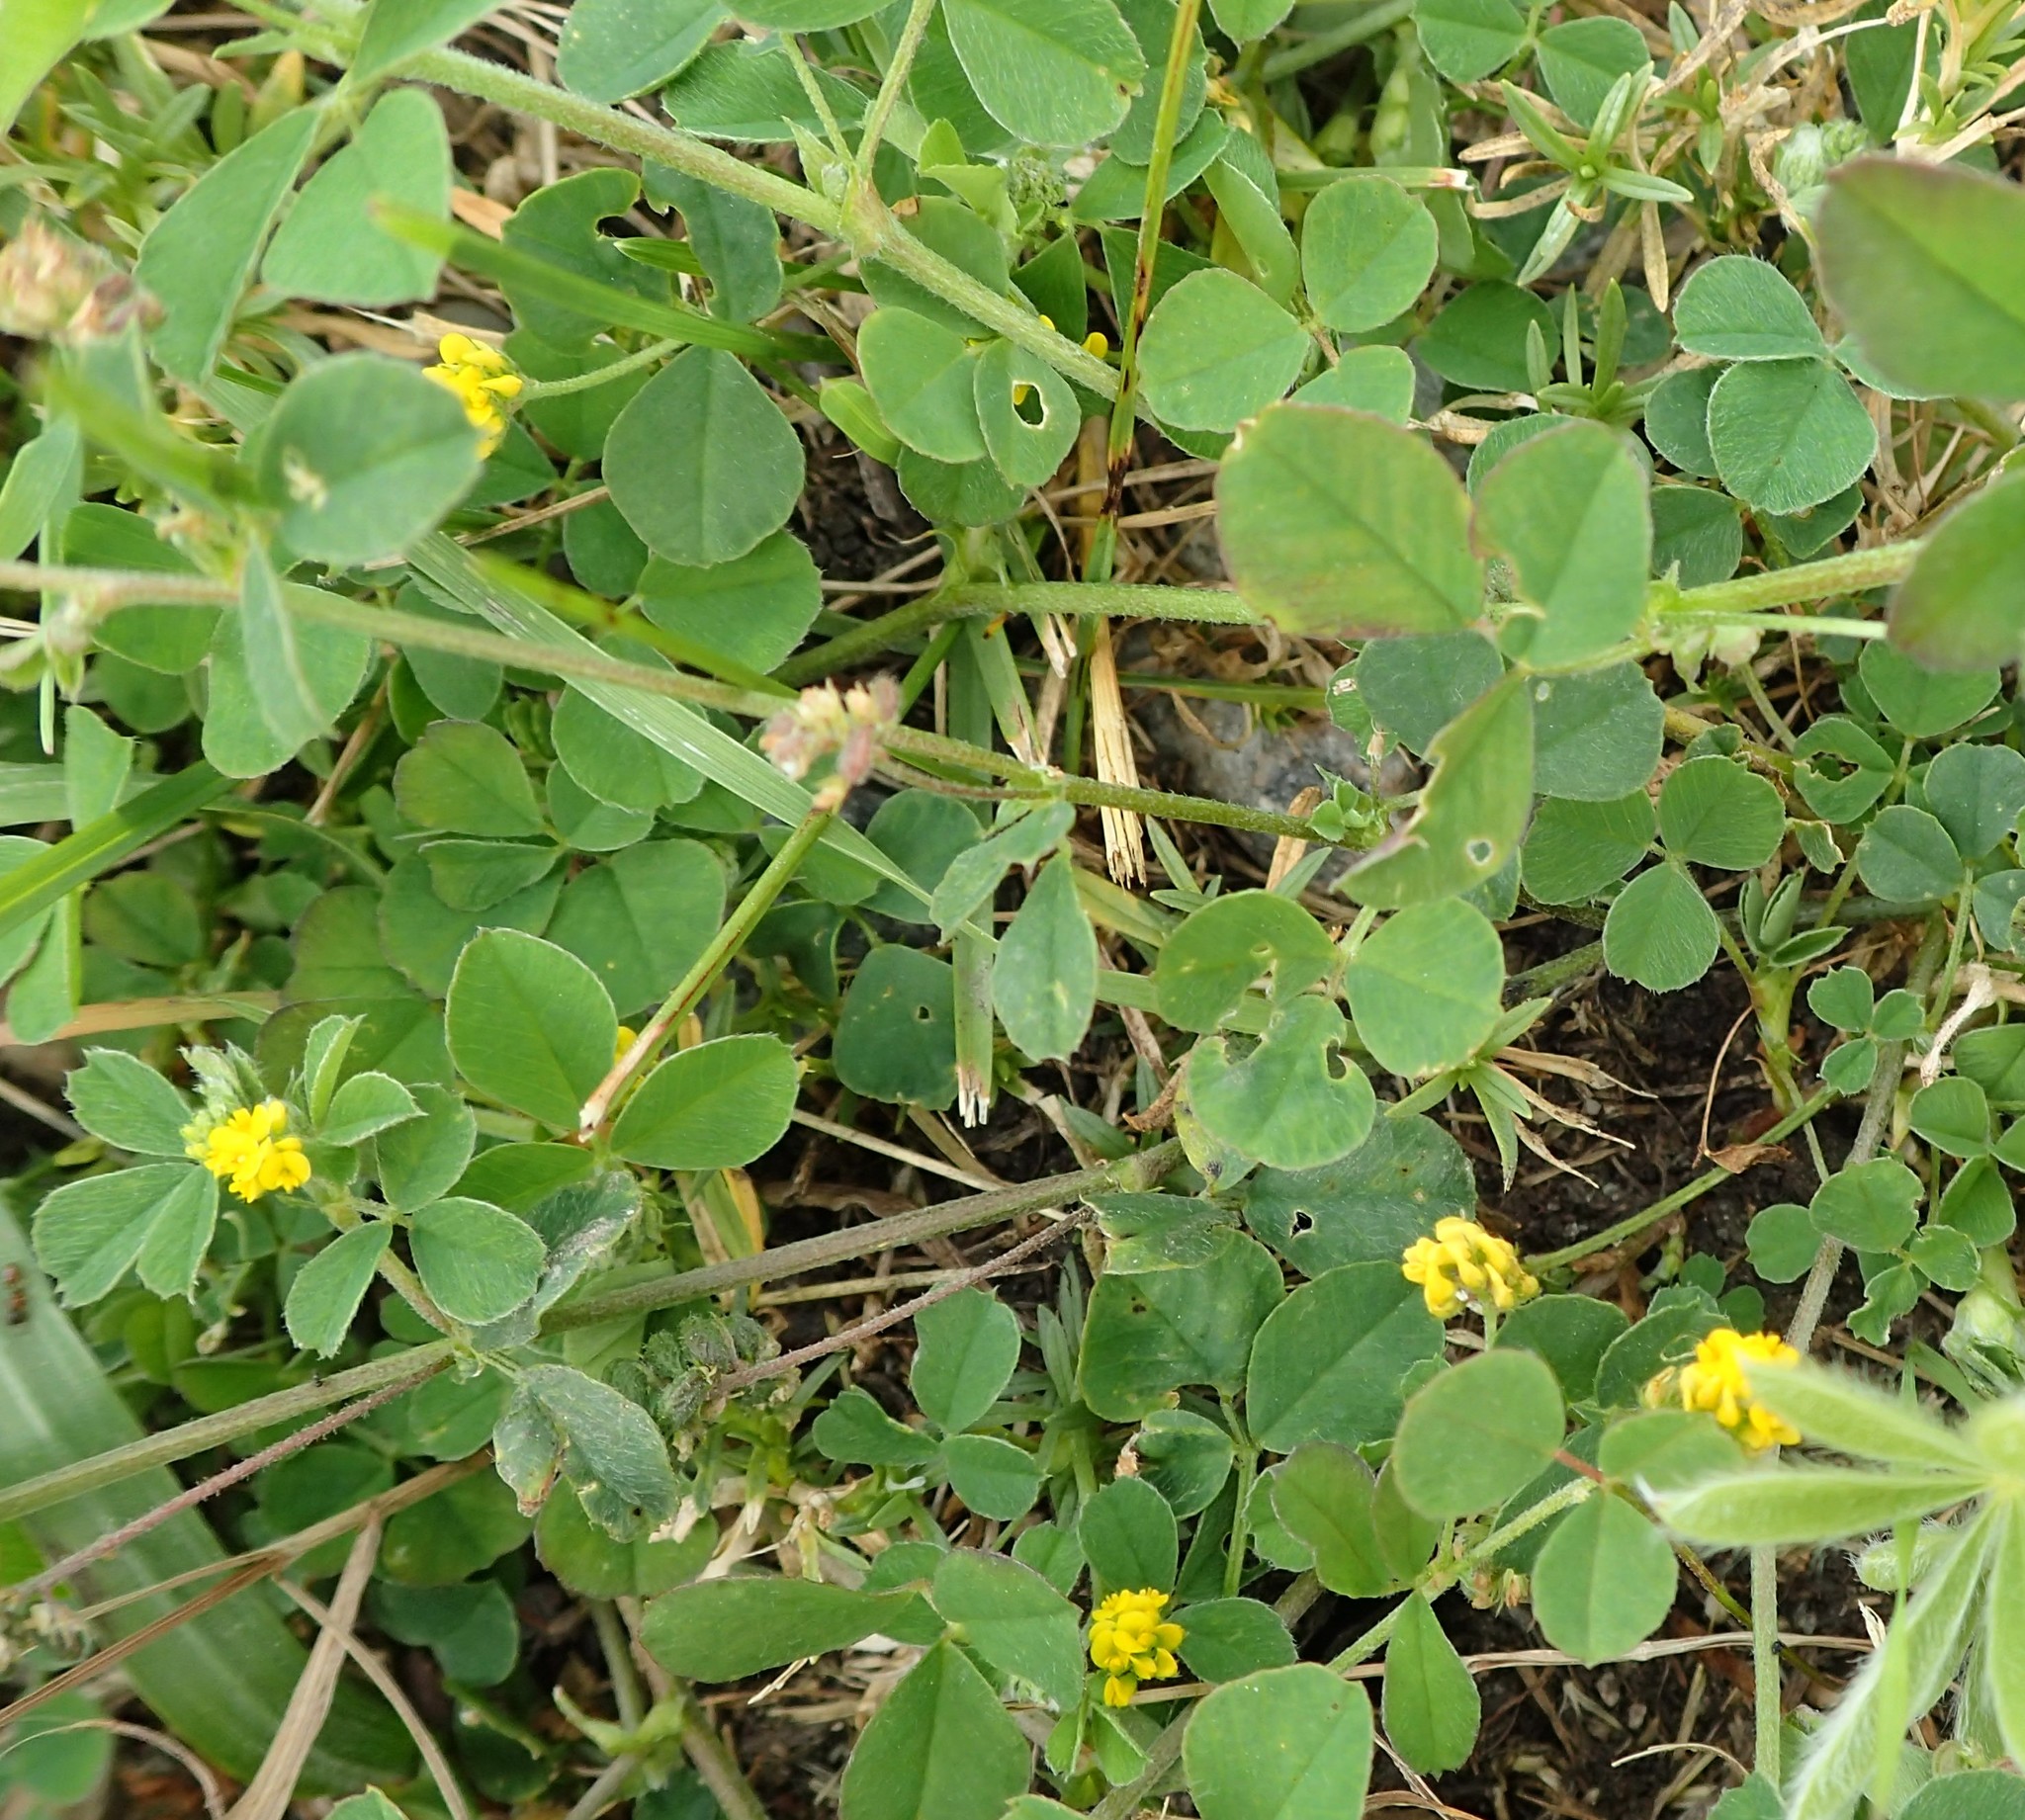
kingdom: Plantae
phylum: Tracheophyta
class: Magnoliopsida
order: Fabales
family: Fabaceae
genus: Medicago
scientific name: Medicago lupulina
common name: Black medick
